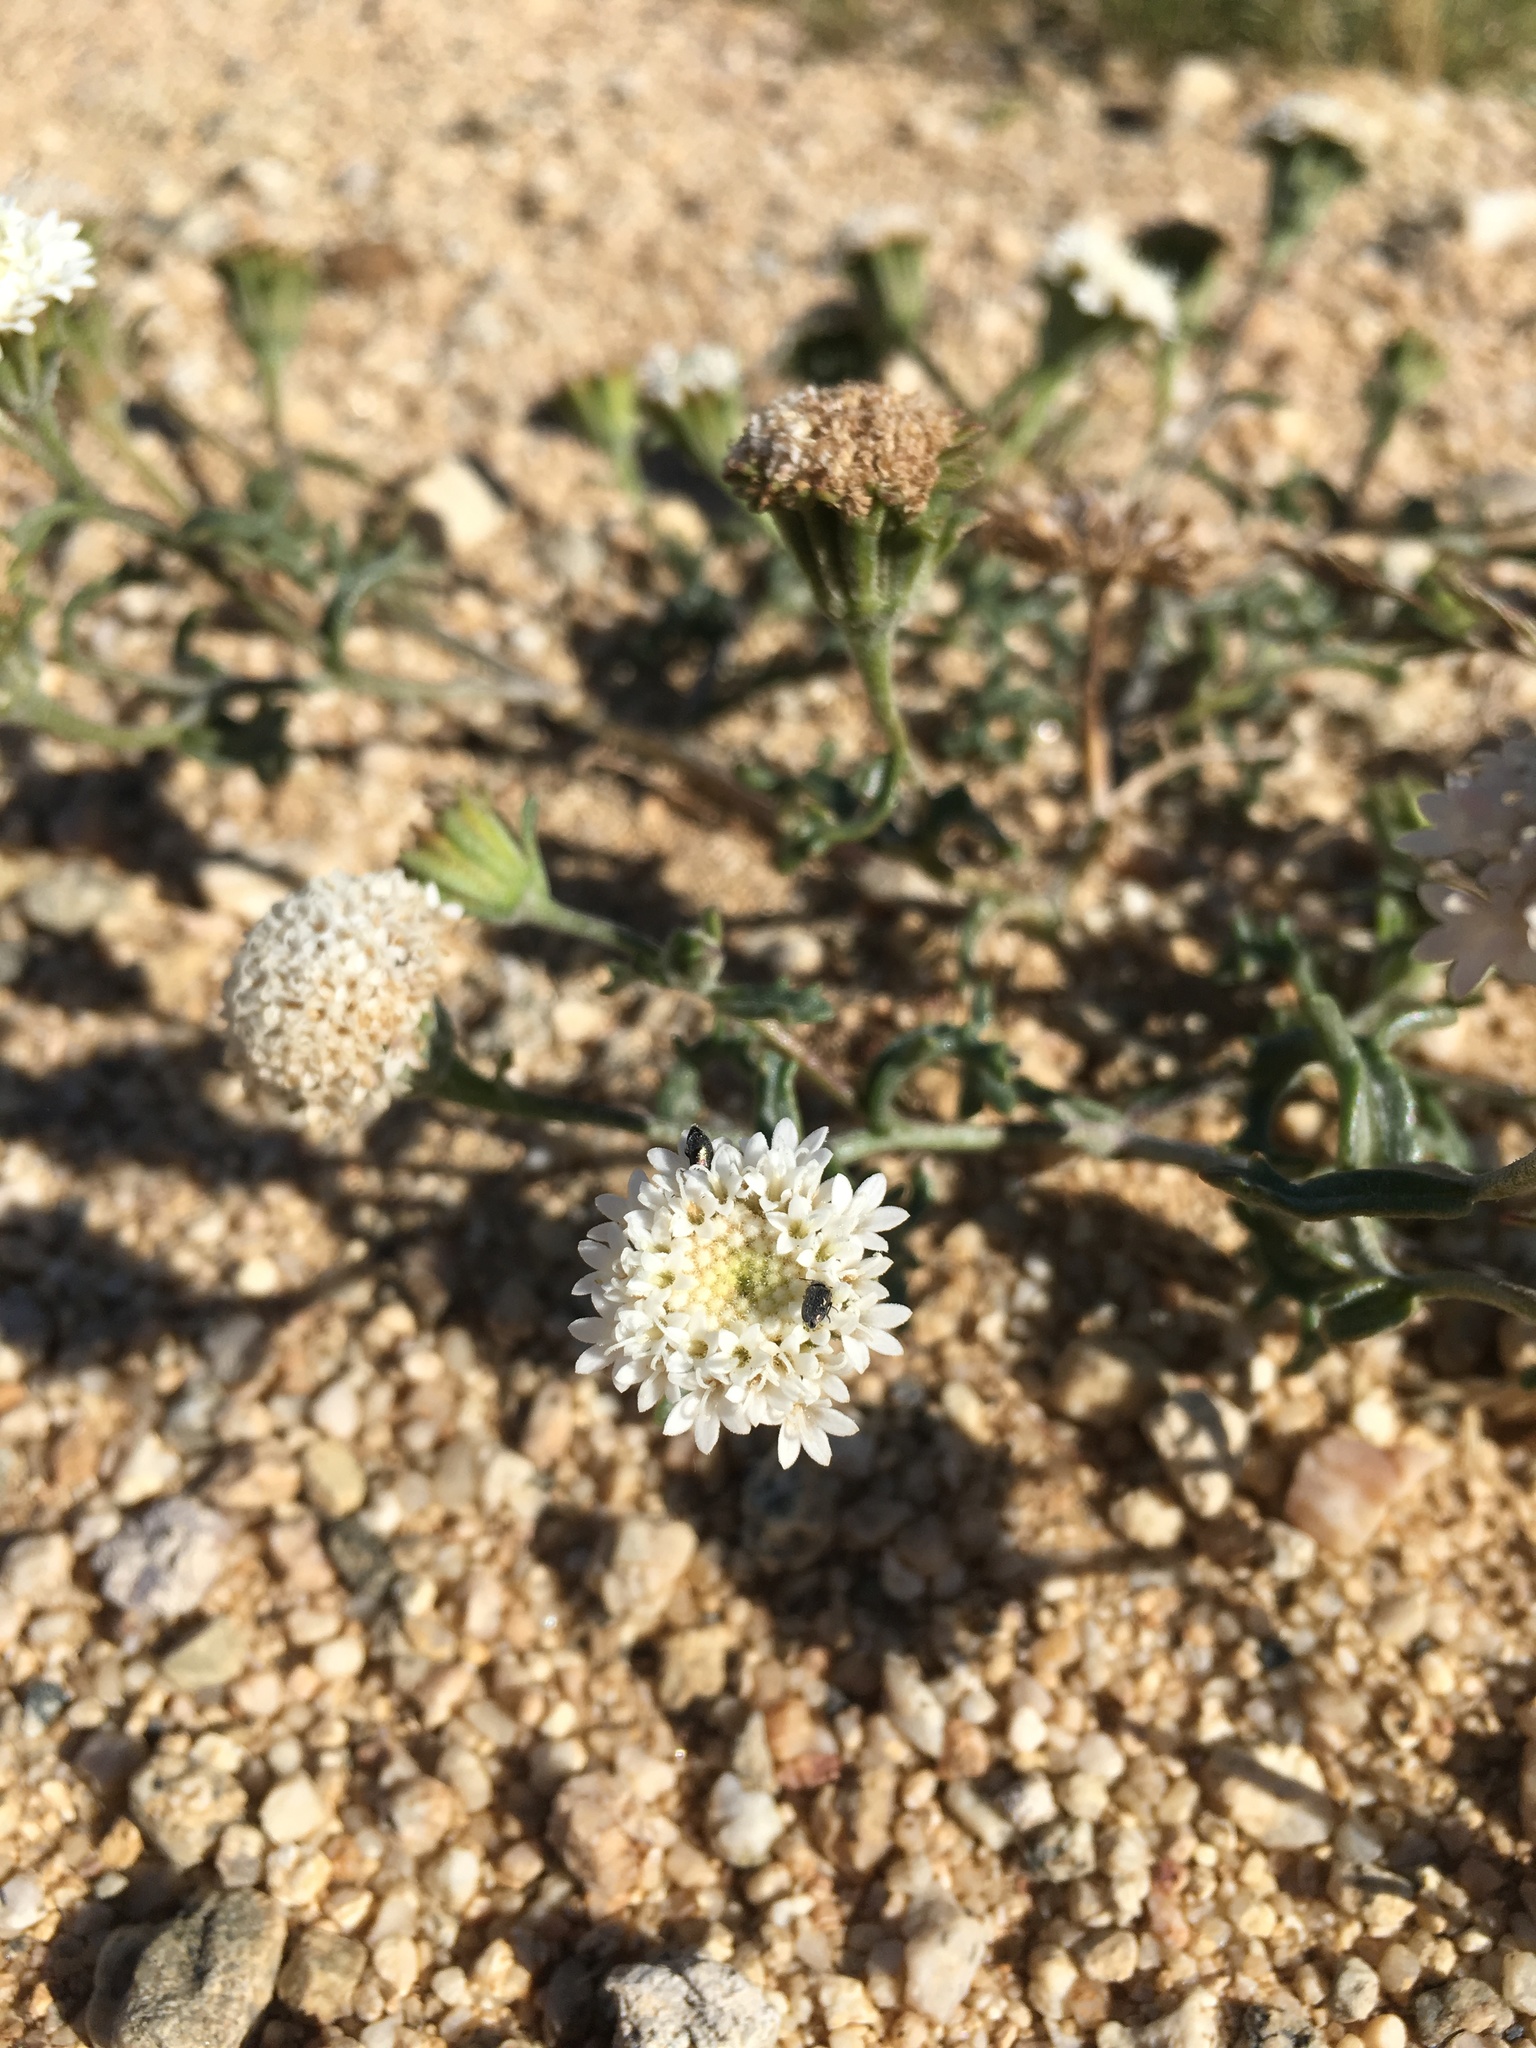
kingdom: Plantae
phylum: Tracheophyta
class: Magnoliopsida
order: Asterales
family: Asteraceae
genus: Chaenactis
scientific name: Chaenactis stevioides
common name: Desert pincushion
